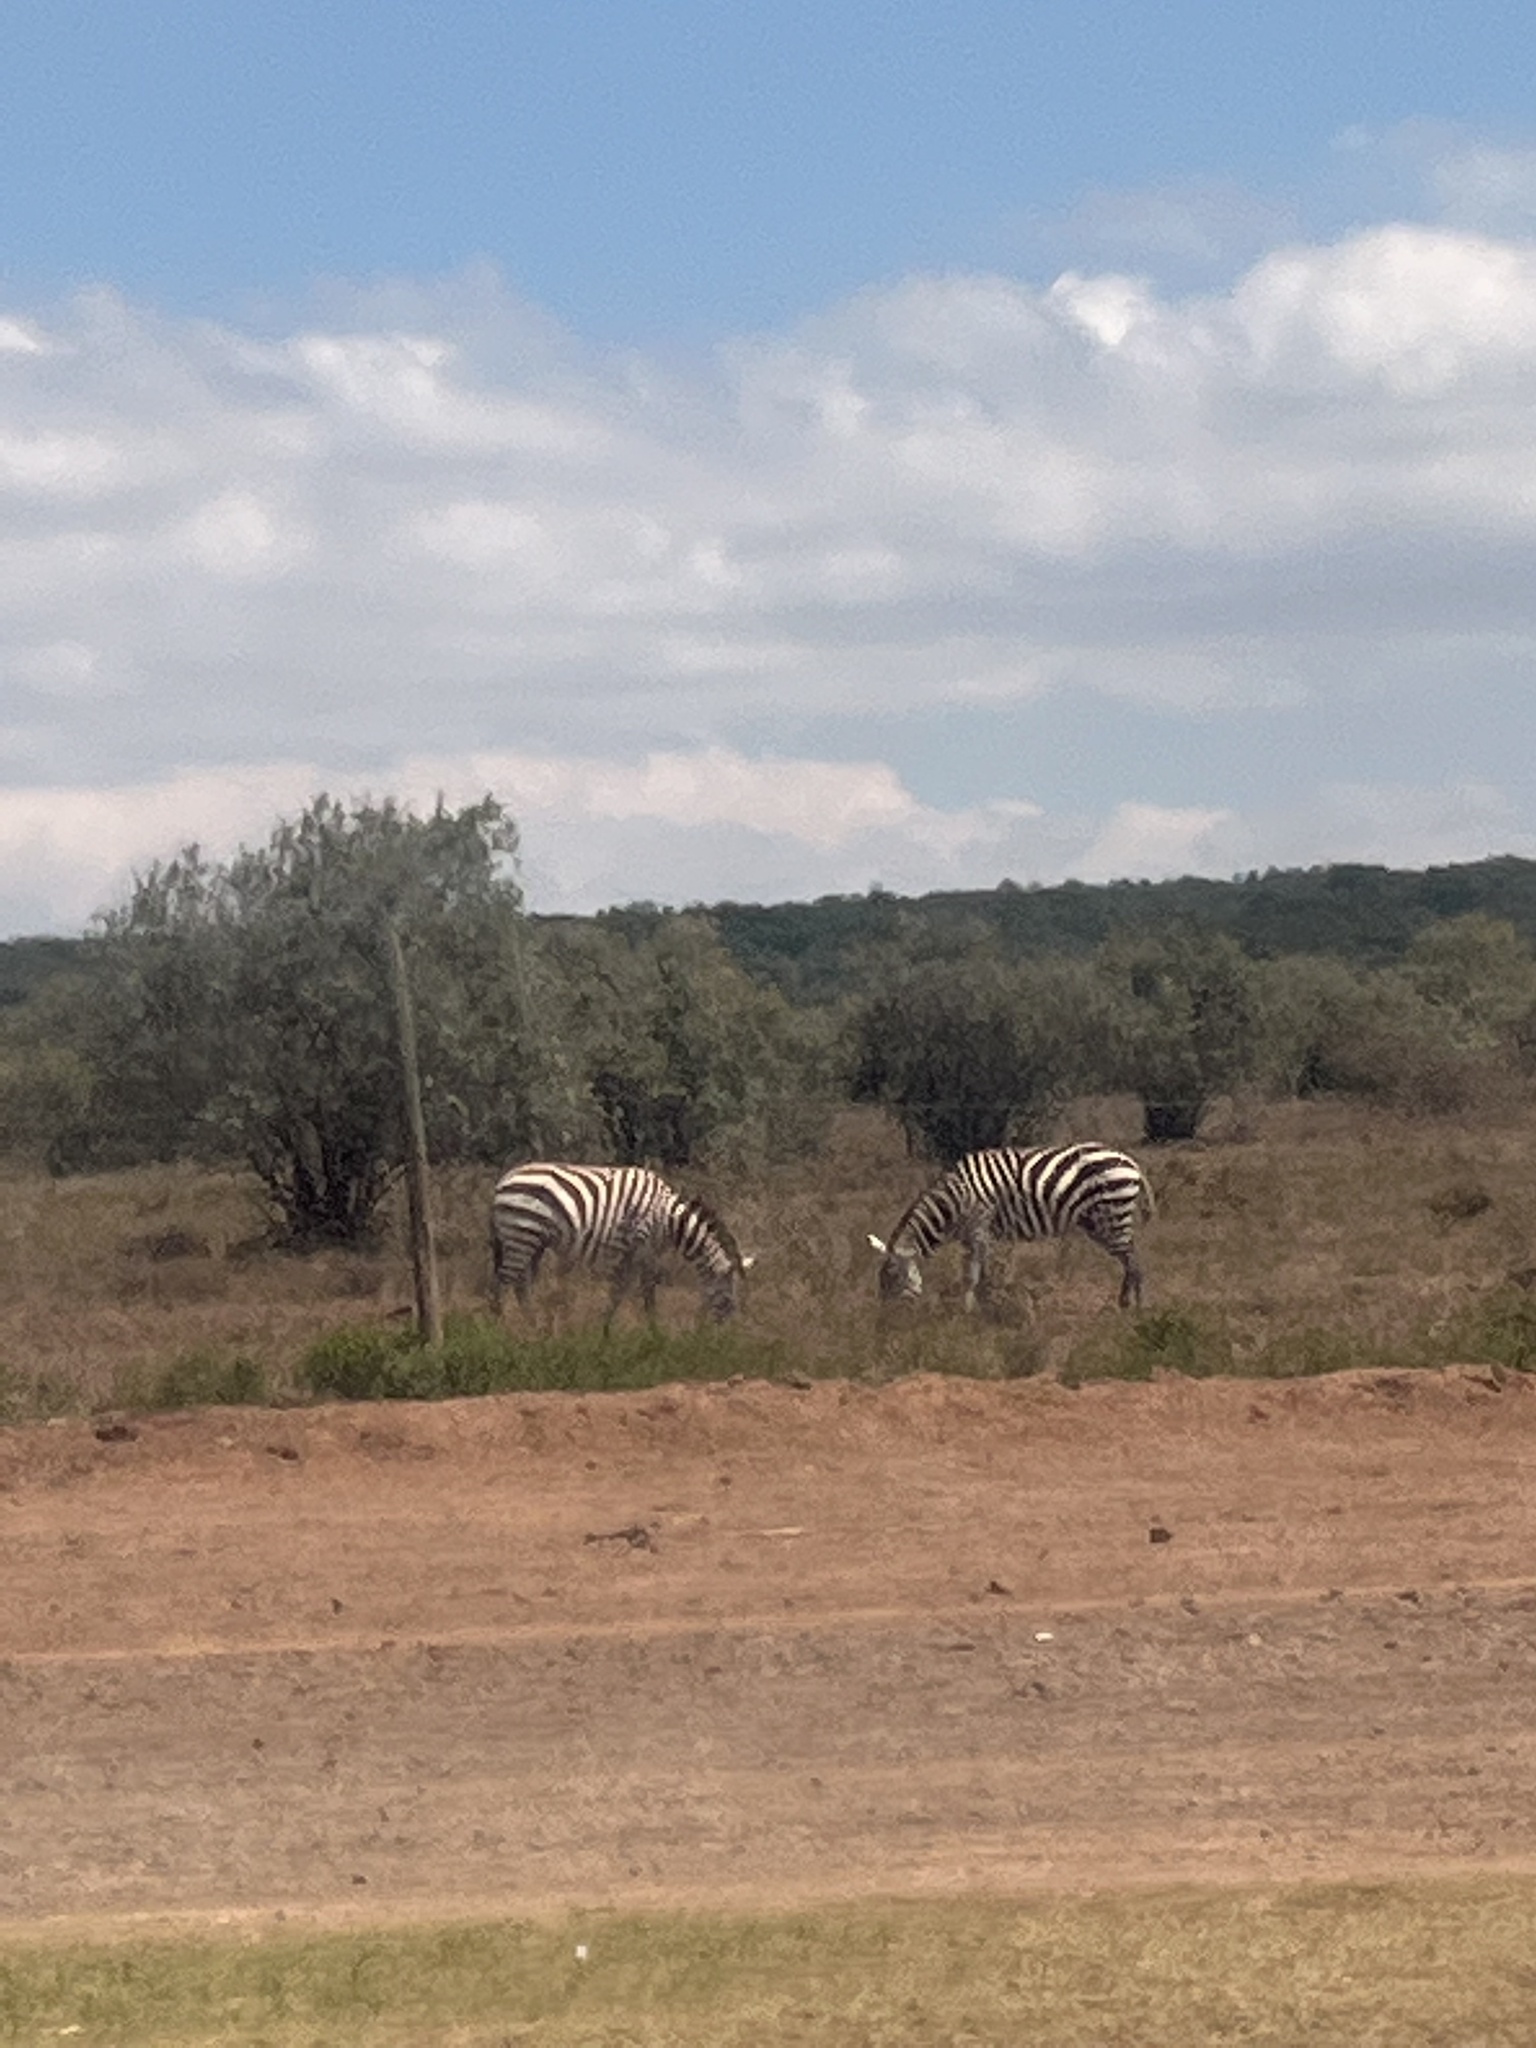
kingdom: Animalia
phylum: Chordata
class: Mammalia
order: Perissodactyla
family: Equidae
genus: Equus
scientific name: Equus quagga
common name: Plains zebra
